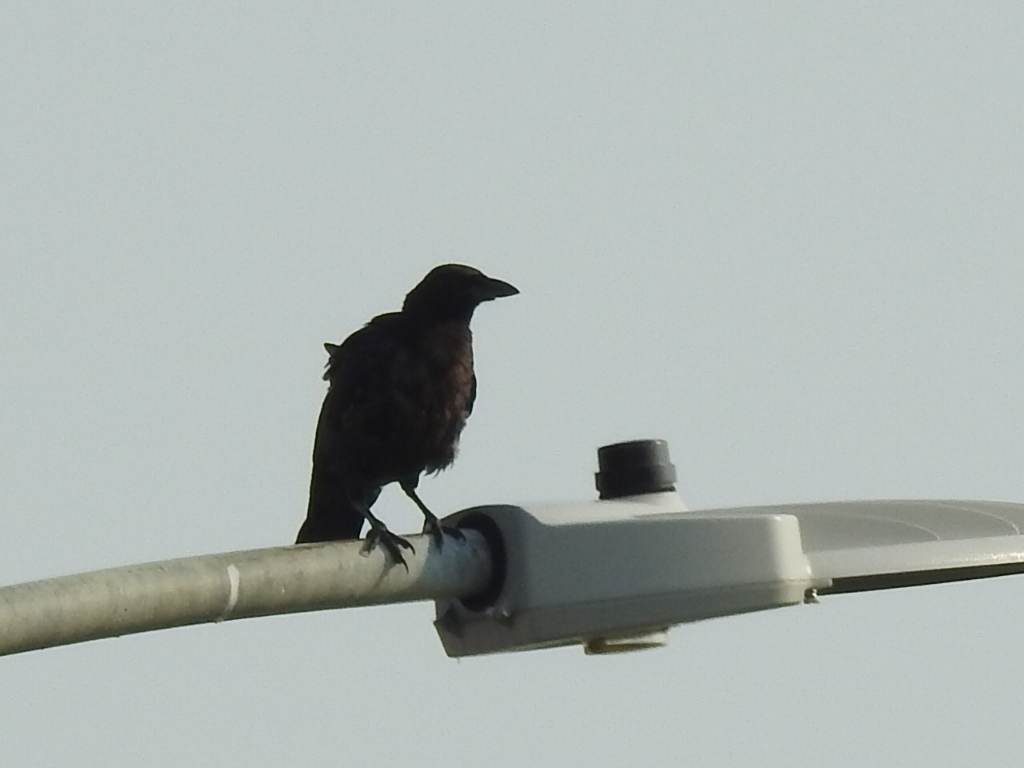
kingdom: Animalia
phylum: Chordata
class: Aves
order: Passeriformes
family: Corvidae
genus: Corvus
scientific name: Corvus brachyrhynchos
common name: American crow
